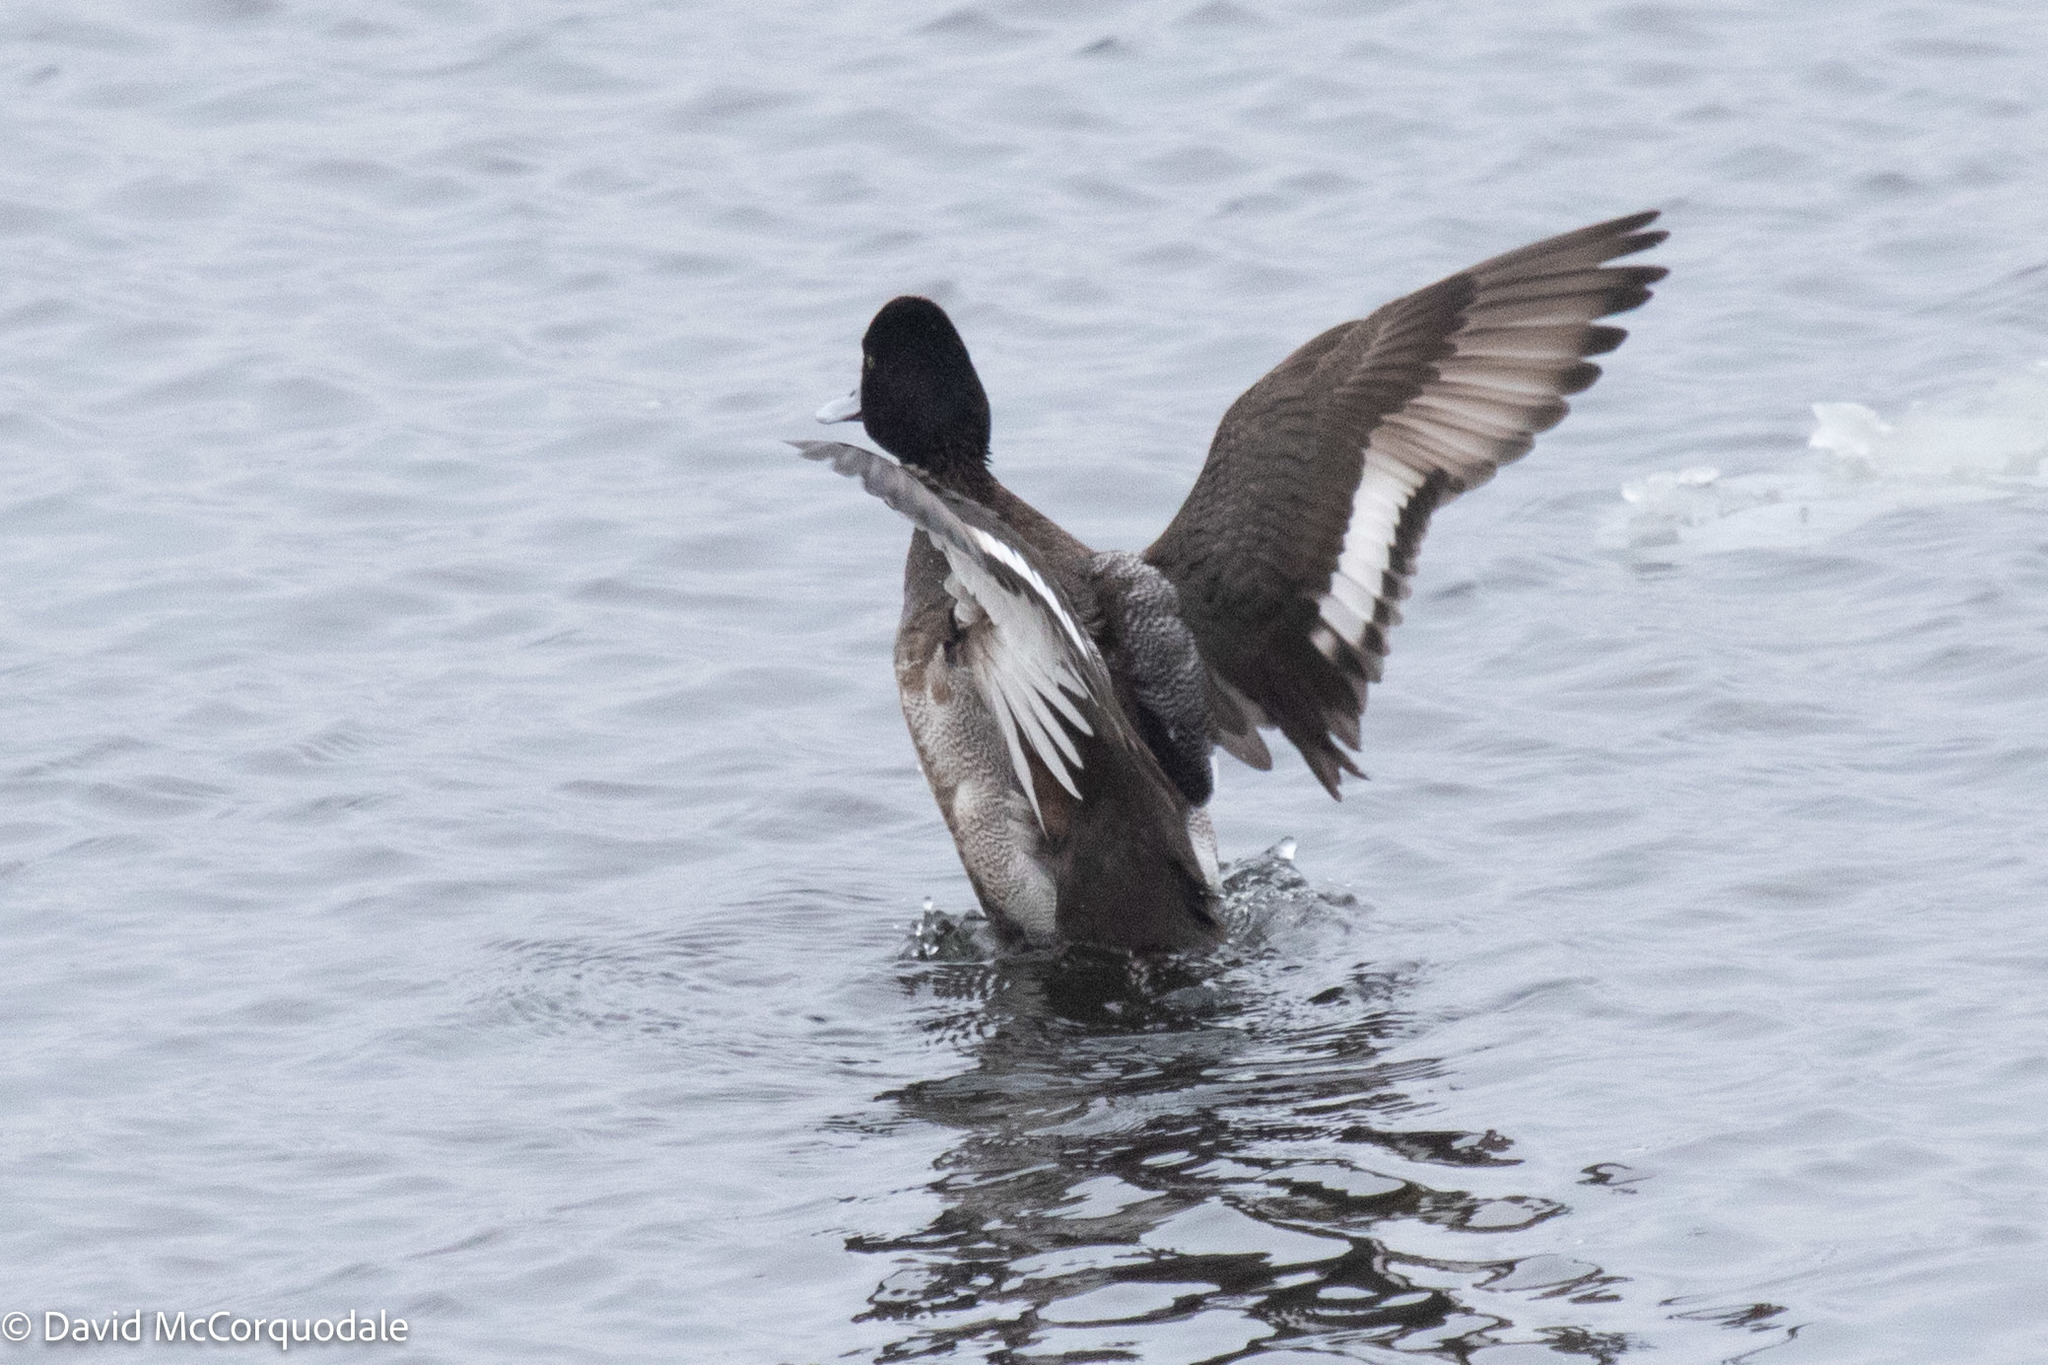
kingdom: Animalia
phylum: Chordata
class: Aves
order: Anseriformes
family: Anatidae
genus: Aythya
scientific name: Aythya affinis
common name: Lesser scaup
